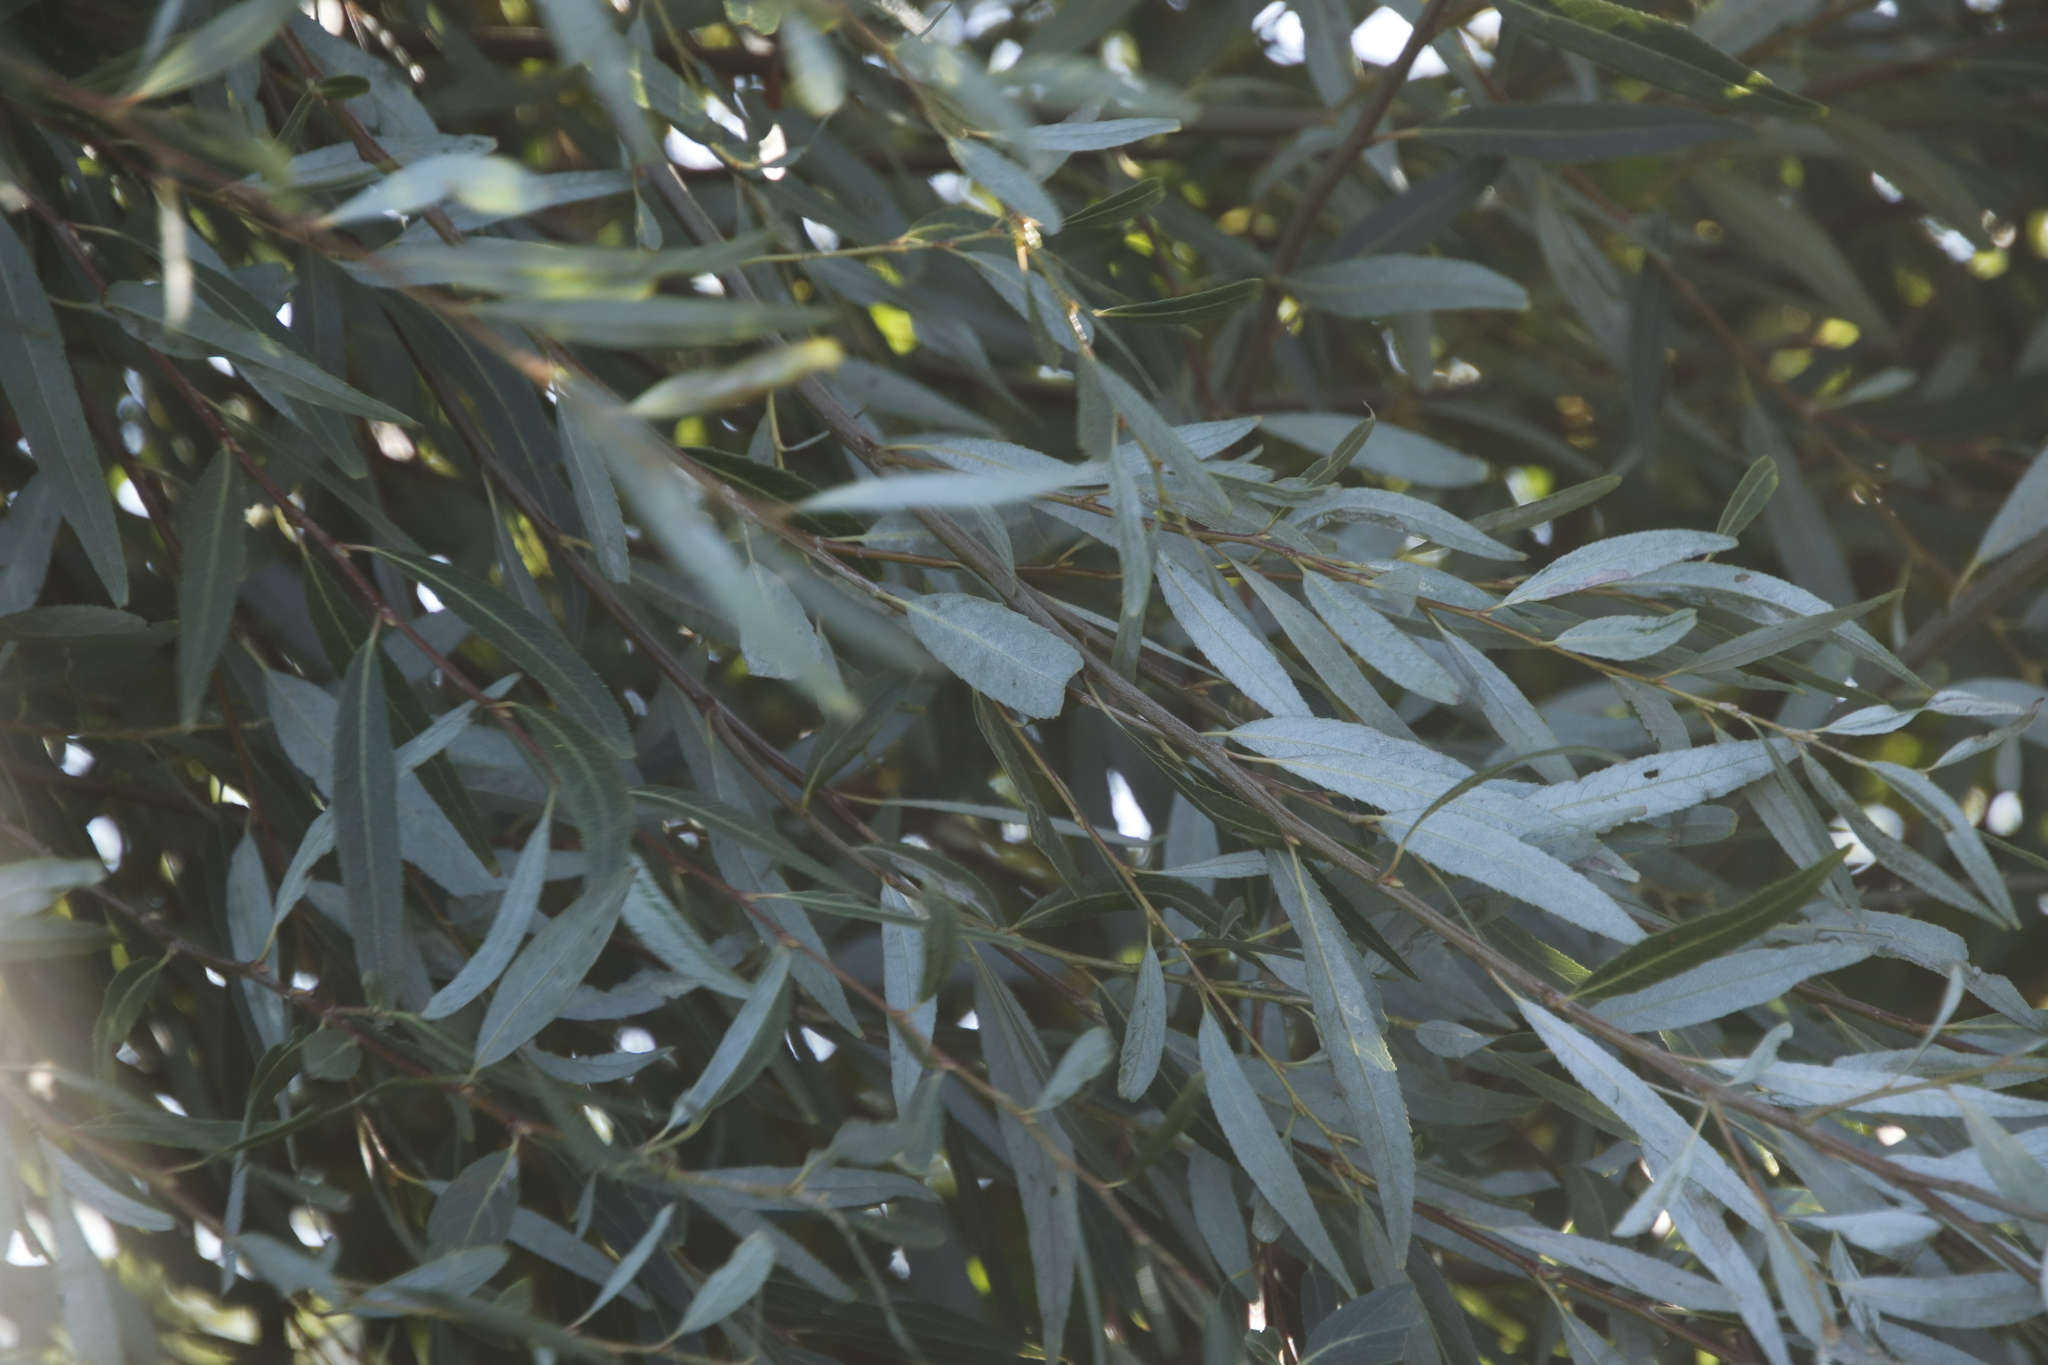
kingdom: Plantae
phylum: Tracheophyta
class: Magnoliopsida
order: Malpighiales
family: Salicaceae
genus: Salix
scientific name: Salix mucronata
